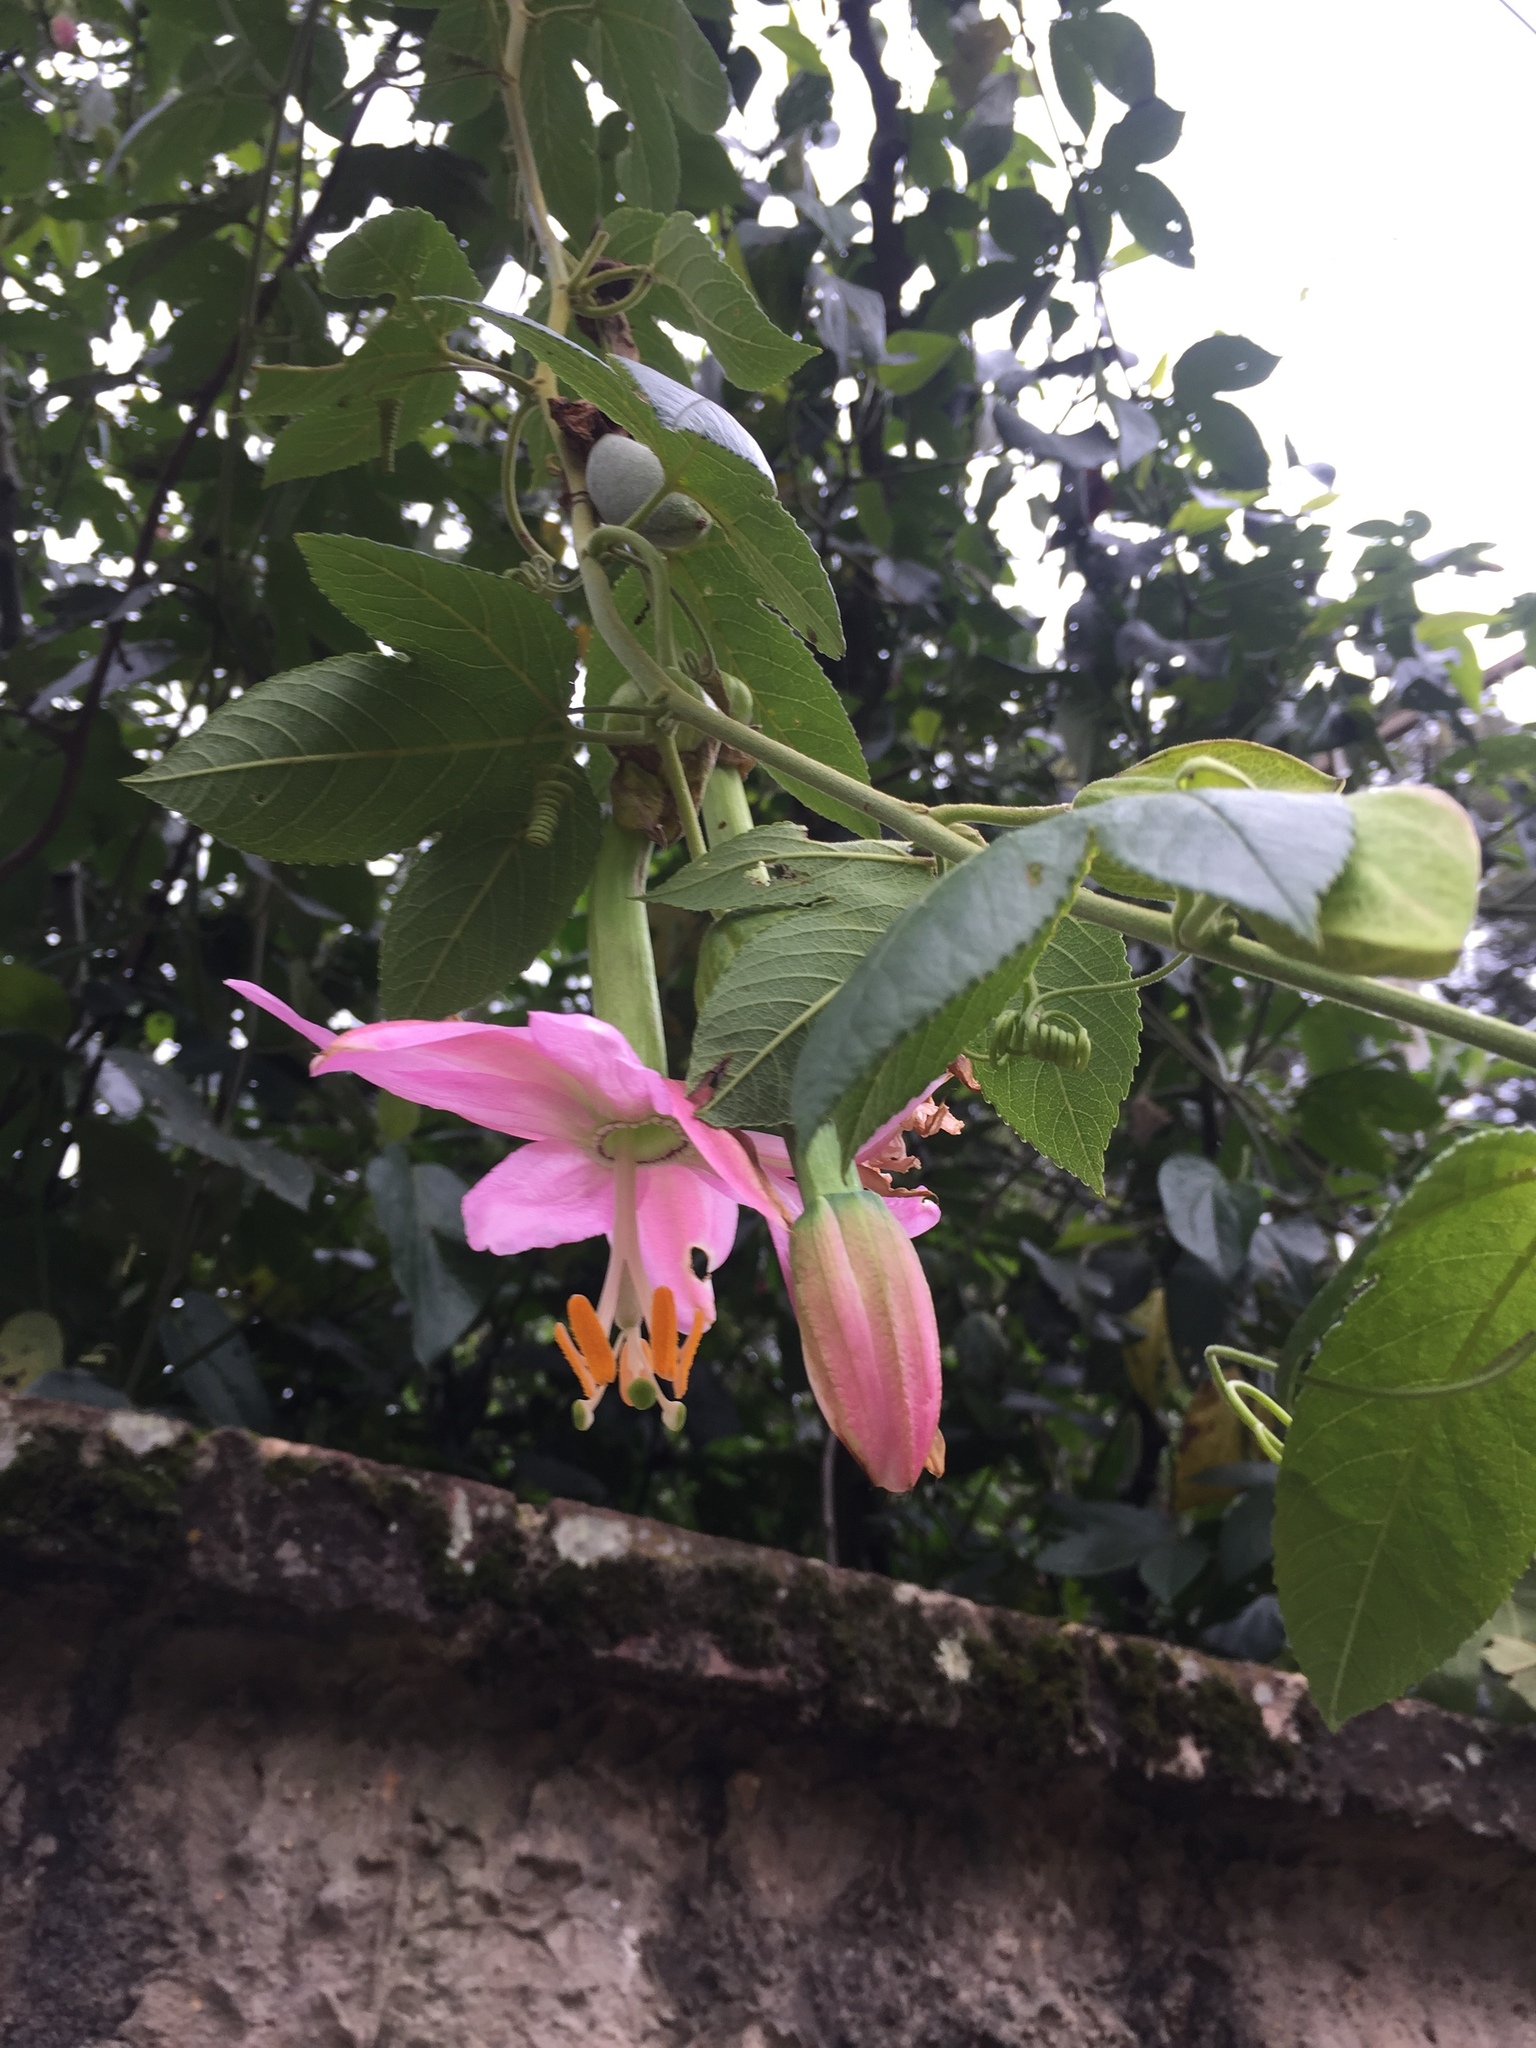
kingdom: Plantae
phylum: Tracheophyta
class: Magnoliopsida
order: Malpighiales
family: Passifloraceae
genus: Passiflora
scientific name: Passiflora tarminiana
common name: Banana poka
